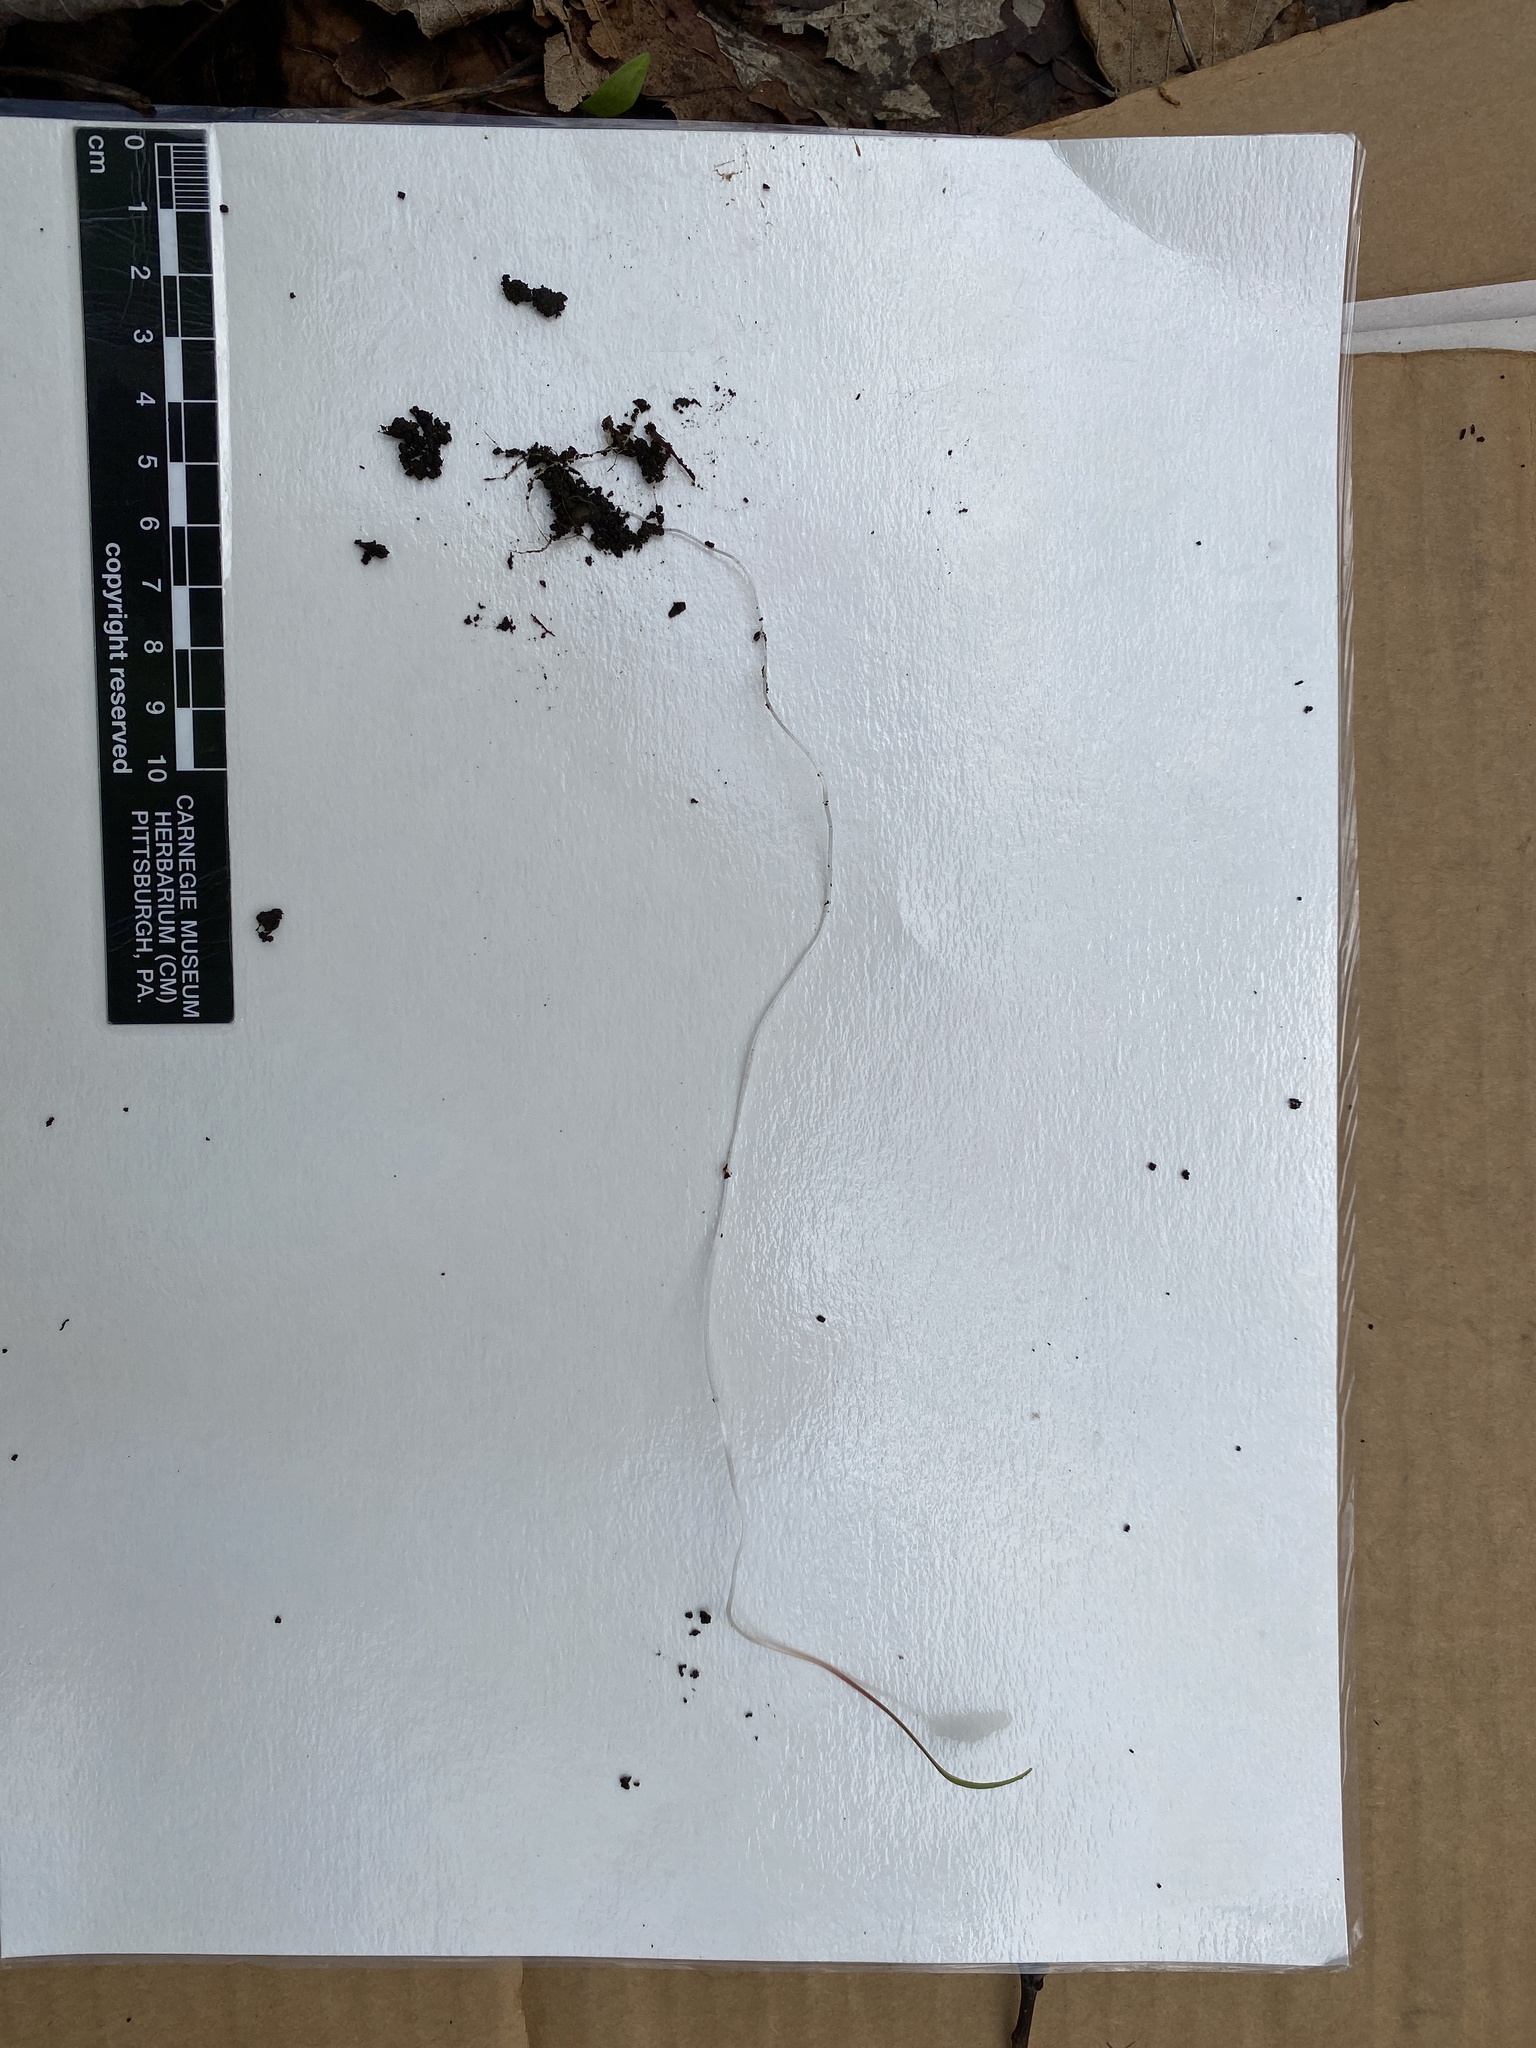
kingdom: Plantae
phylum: Tracheophyta
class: Magnoliopsida
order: Caryophyllales
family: Montiaceae
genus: Claytonia
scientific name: Claytonia caroliniana
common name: Carolina spring beauty
